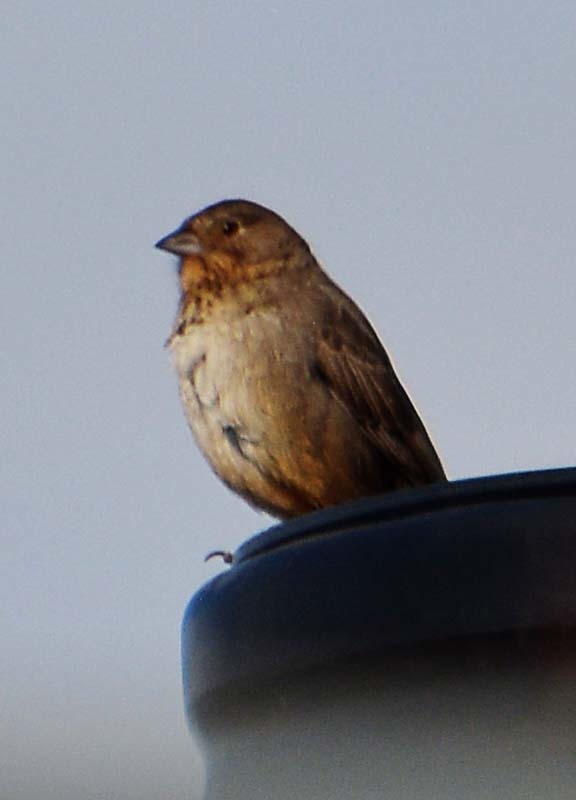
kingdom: Animalia
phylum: Chordata
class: Aves
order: Passeriformes
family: Passerellidae
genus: Melozone
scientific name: Melozone fusca
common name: Canyon towhee
